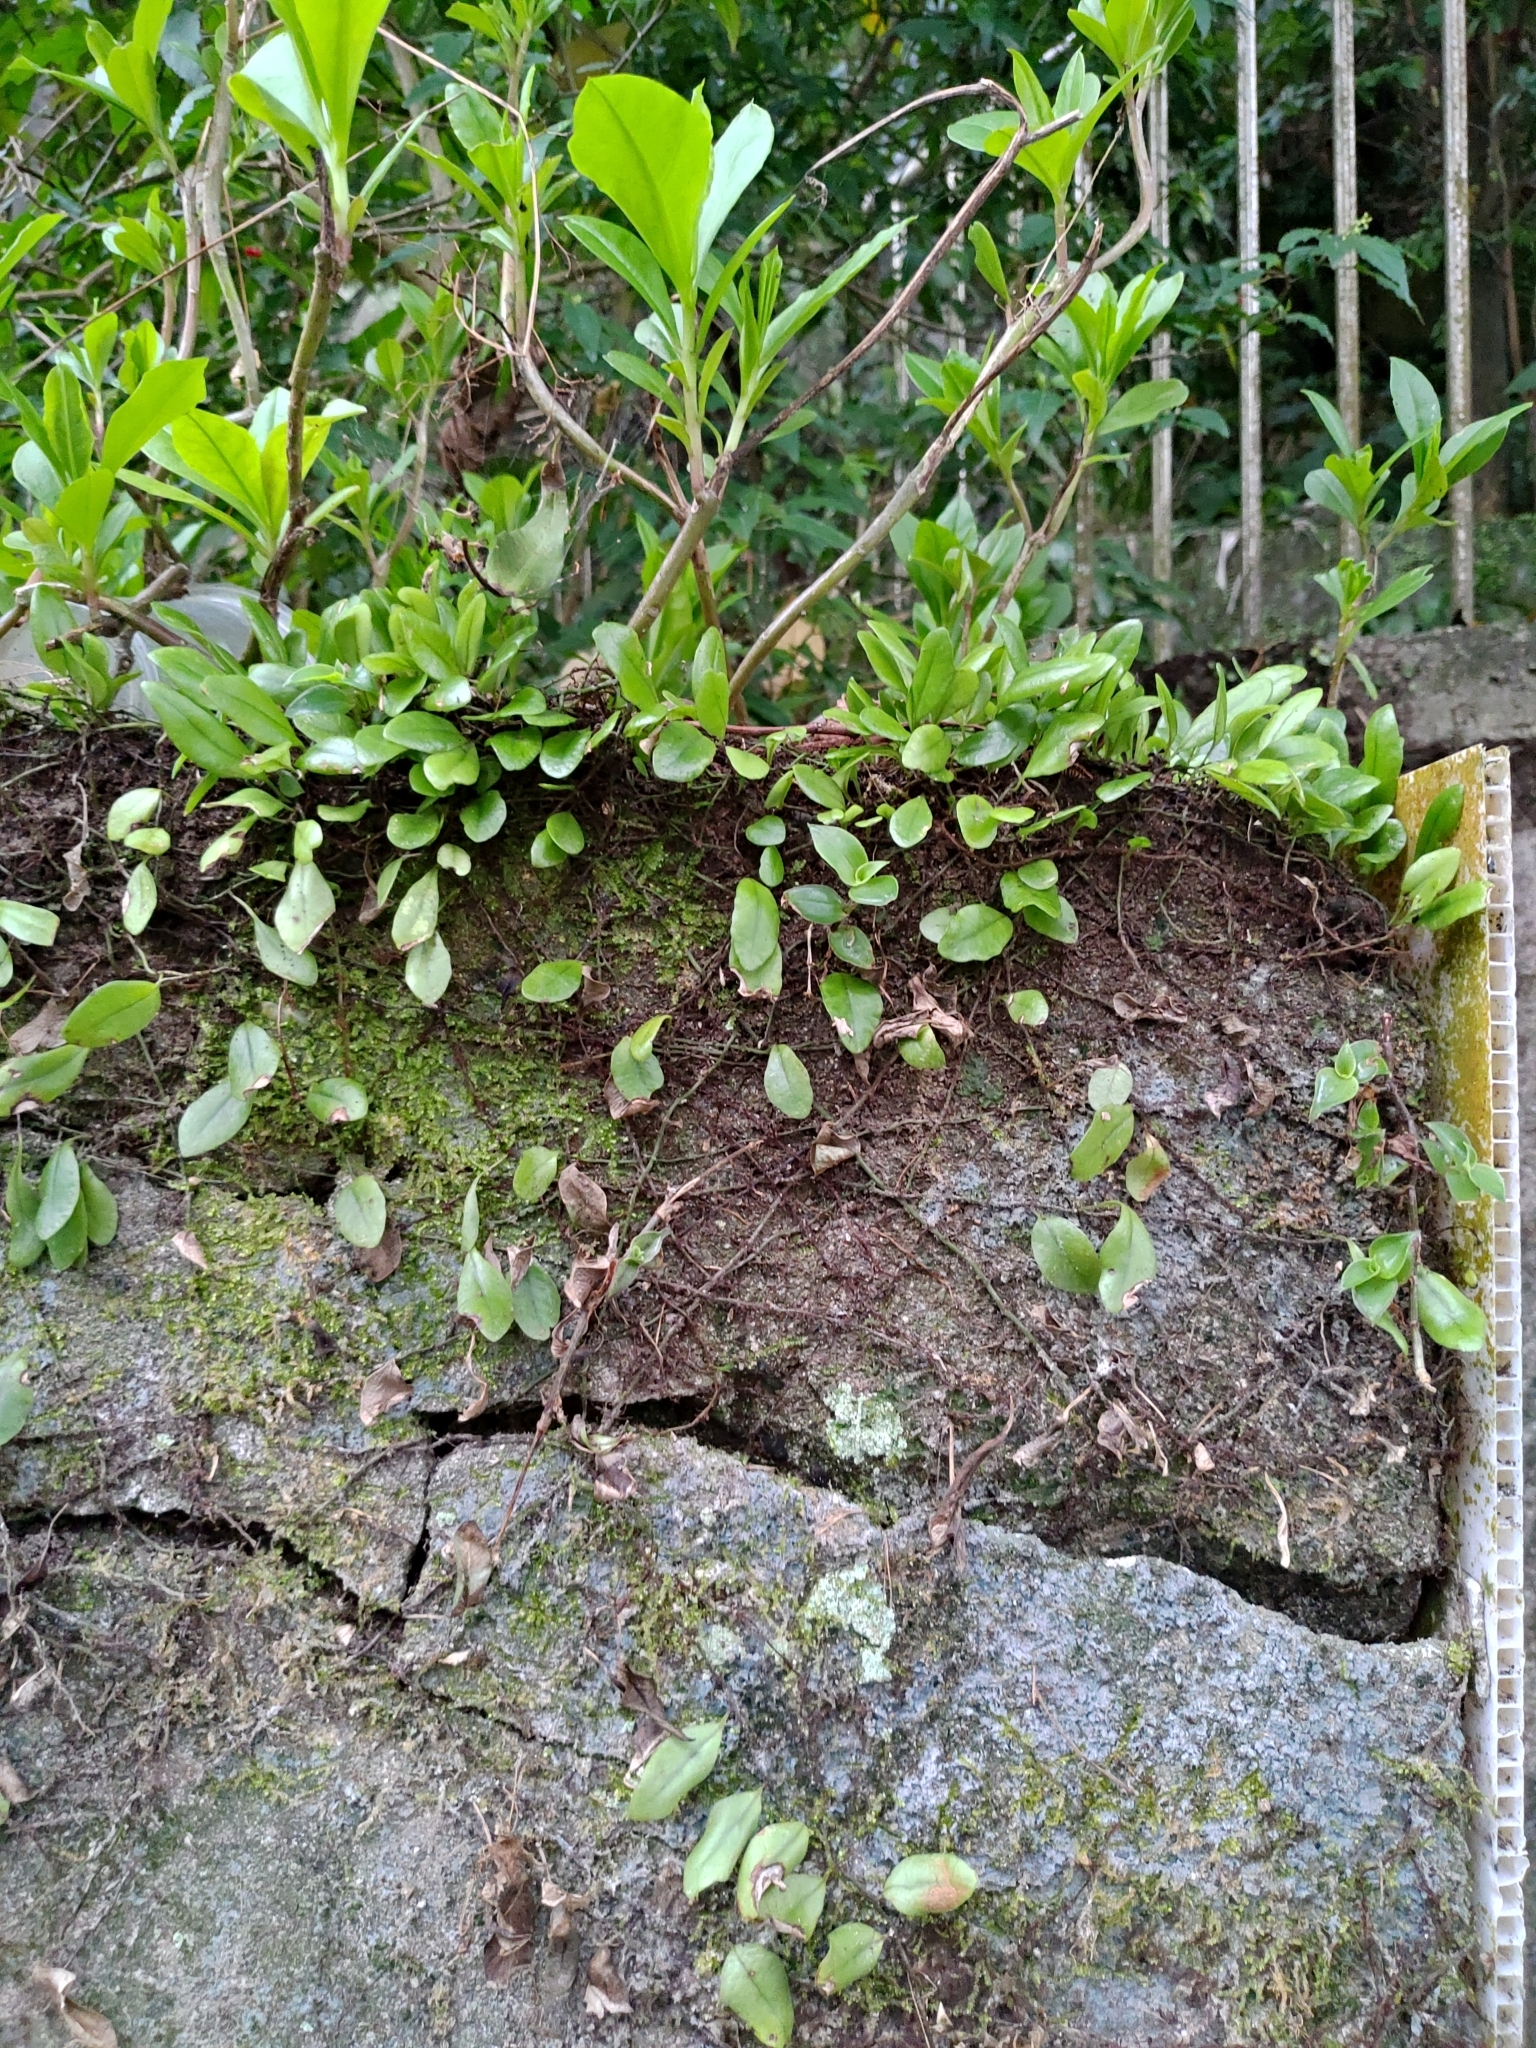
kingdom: Plantae
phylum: Tracheophyta
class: Polypodiopsida
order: Polypodiales
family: Polypodiaceae
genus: Lepisorus
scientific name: Lepisorus microphyllus
